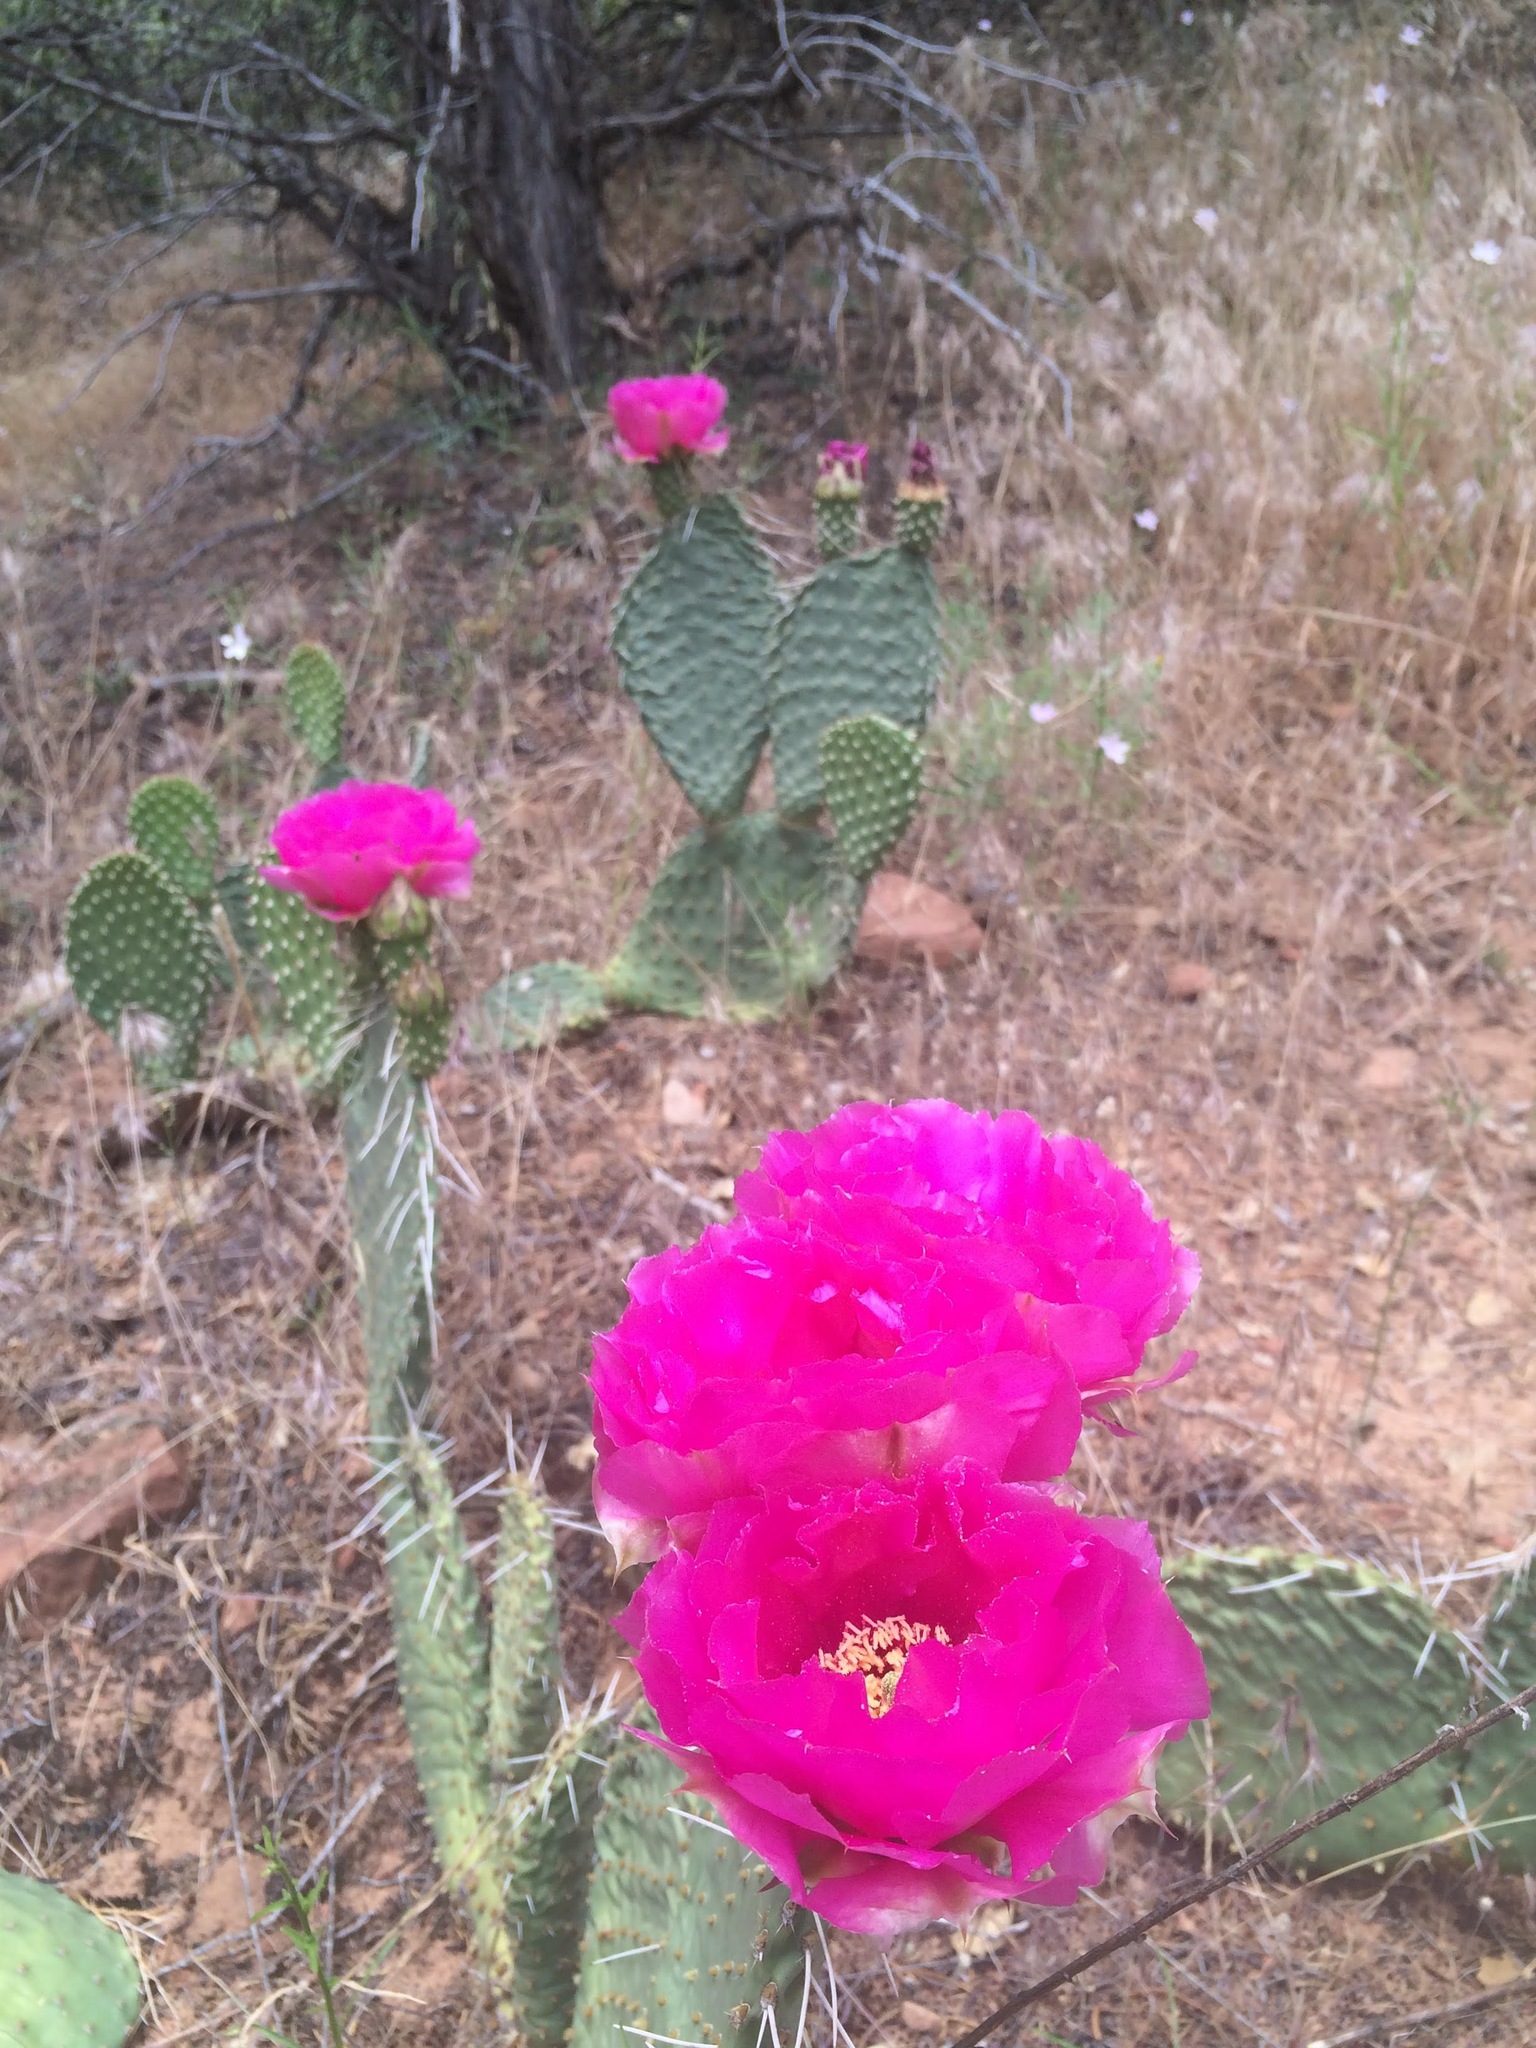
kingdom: Plantae
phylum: Tracheophyta
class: Magnoliopsida
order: Caryophyllales
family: Cactaceae
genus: Opuntia
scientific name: Opuntia aurea
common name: Golden prickly-pear
